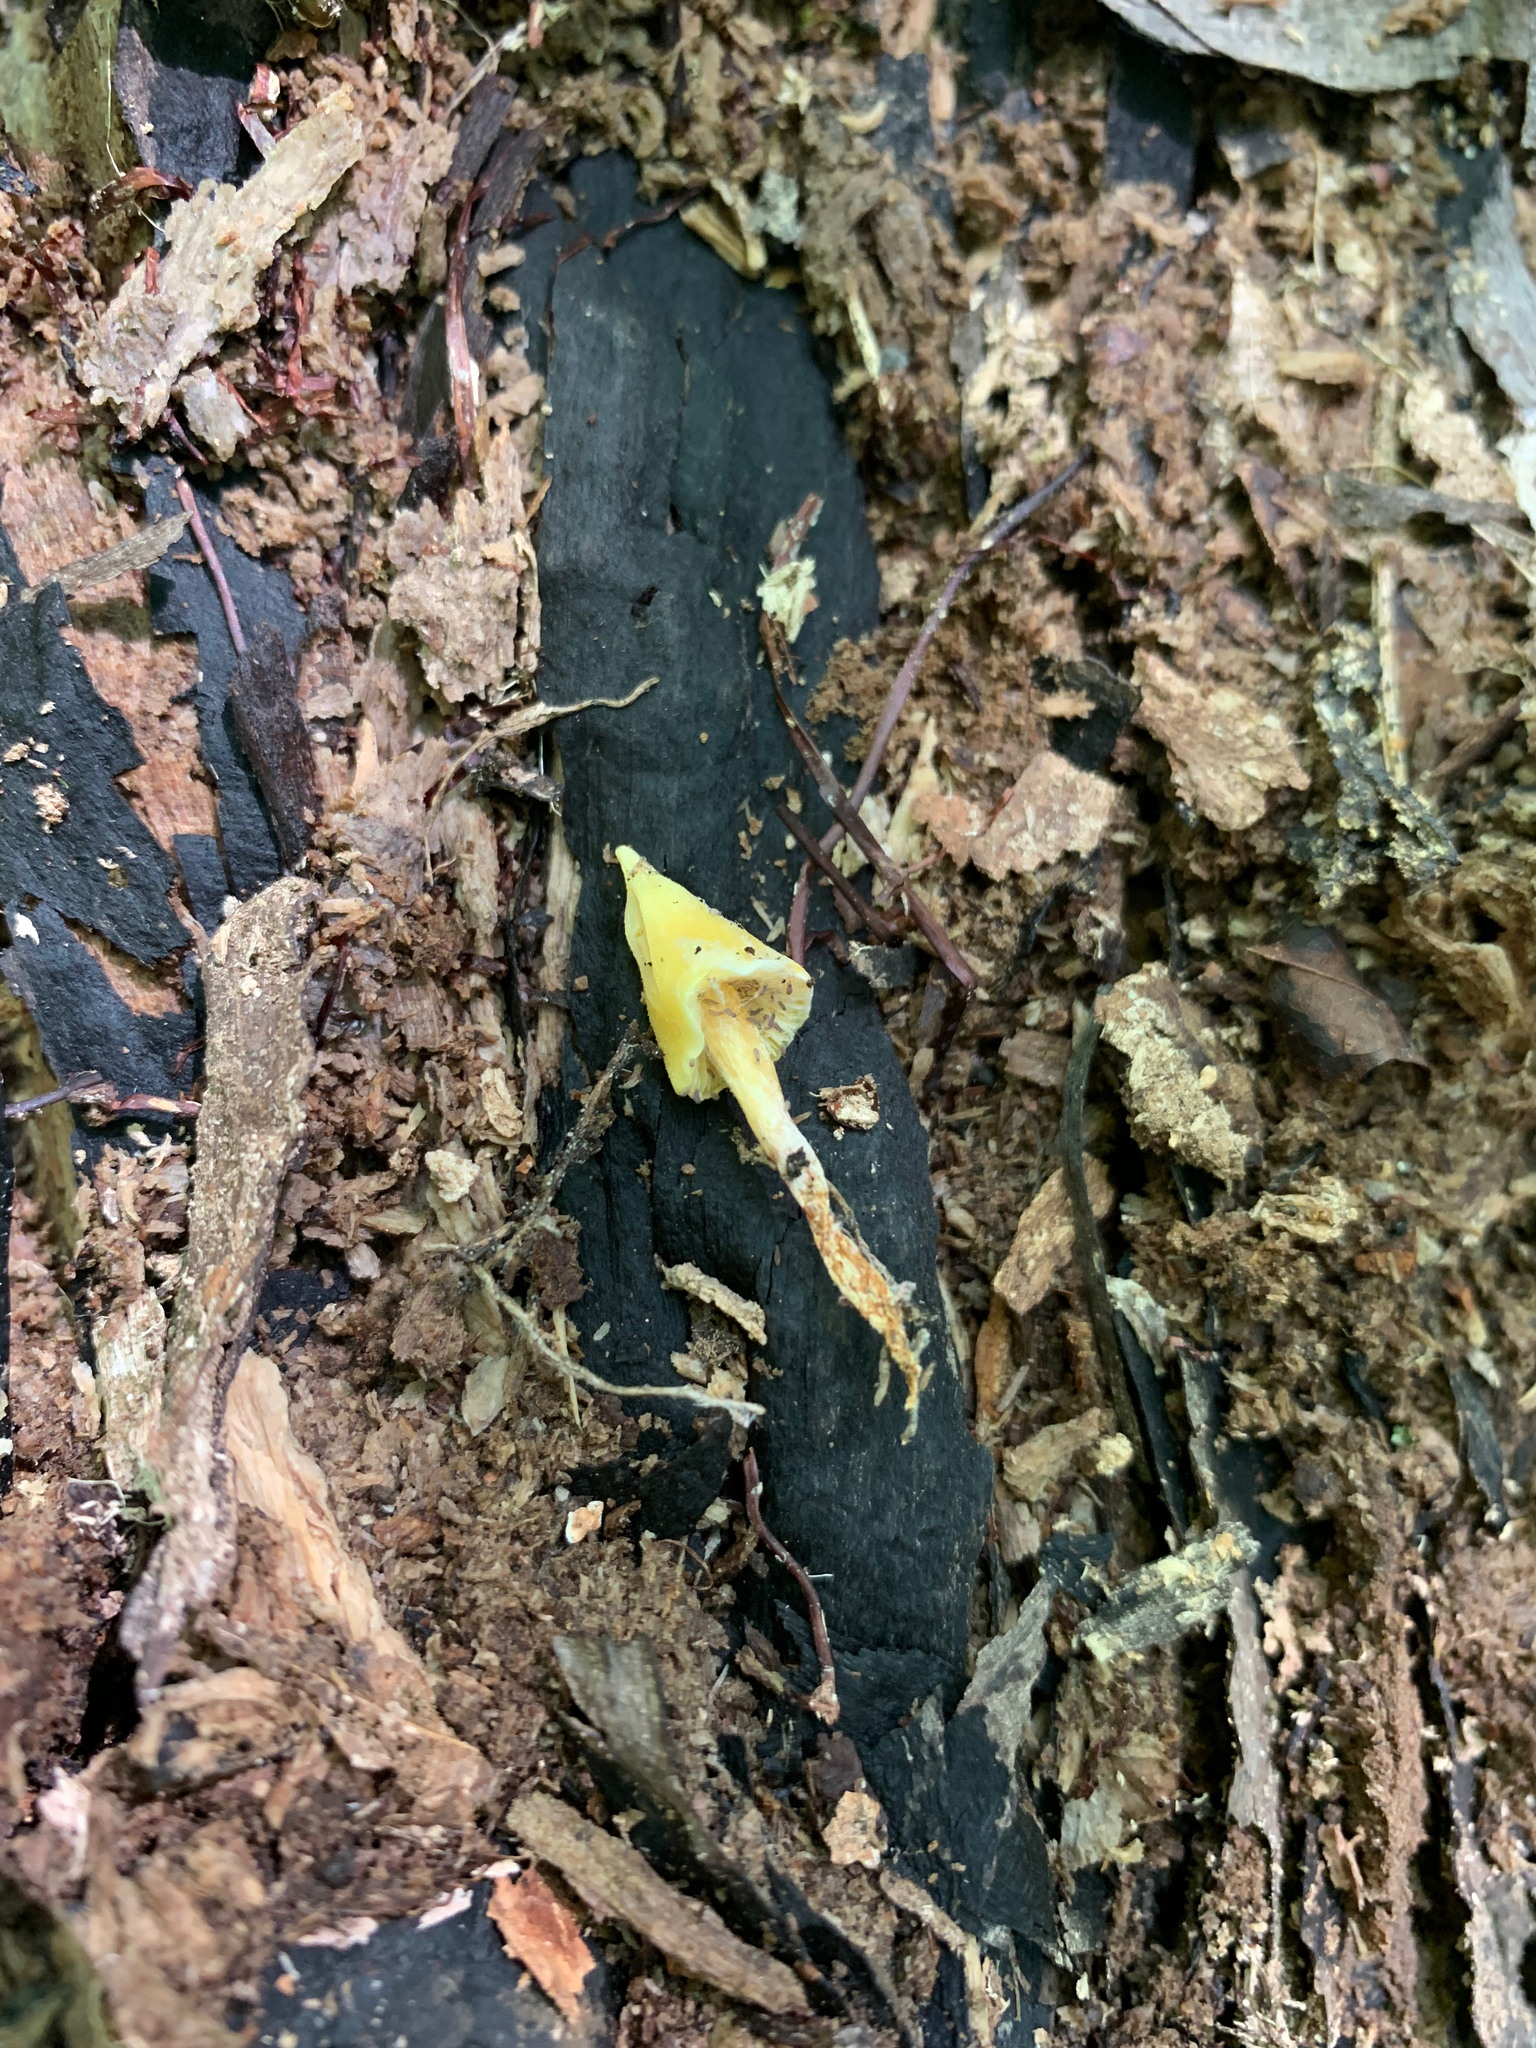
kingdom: Fungi
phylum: Basidiomycota
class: Agaricomycetes
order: Agaricales
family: Entolomataceae
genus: Entoloma
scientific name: Entoloma murrayi
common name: Yellow unicorn entoloma
